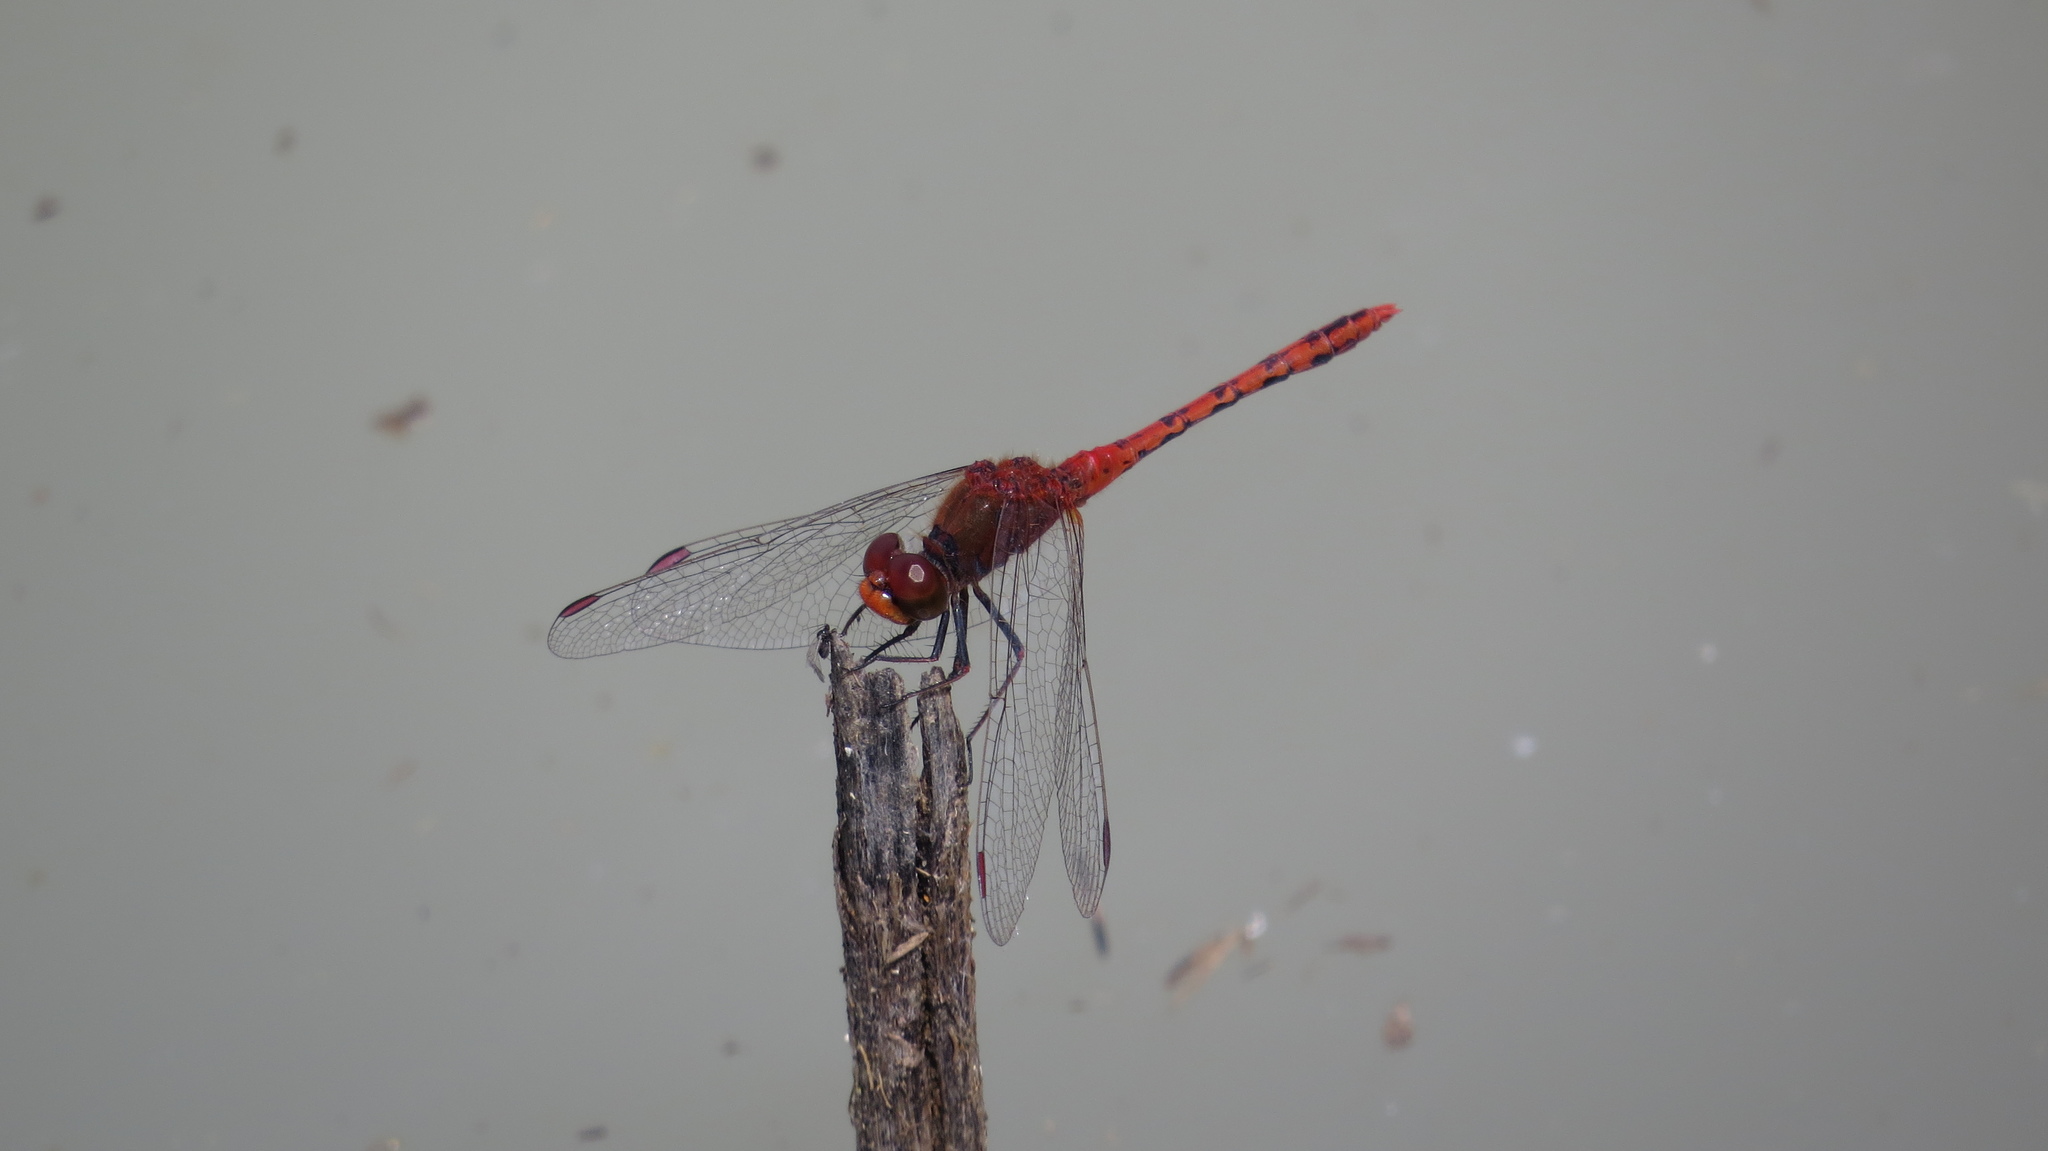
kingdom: Animalia
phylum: Arthropoda
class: Insecta
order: Odonata
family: Libellulidae
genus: Diplacodes
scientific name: Diplacodes bipunctata
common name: Red percher dragonfly
